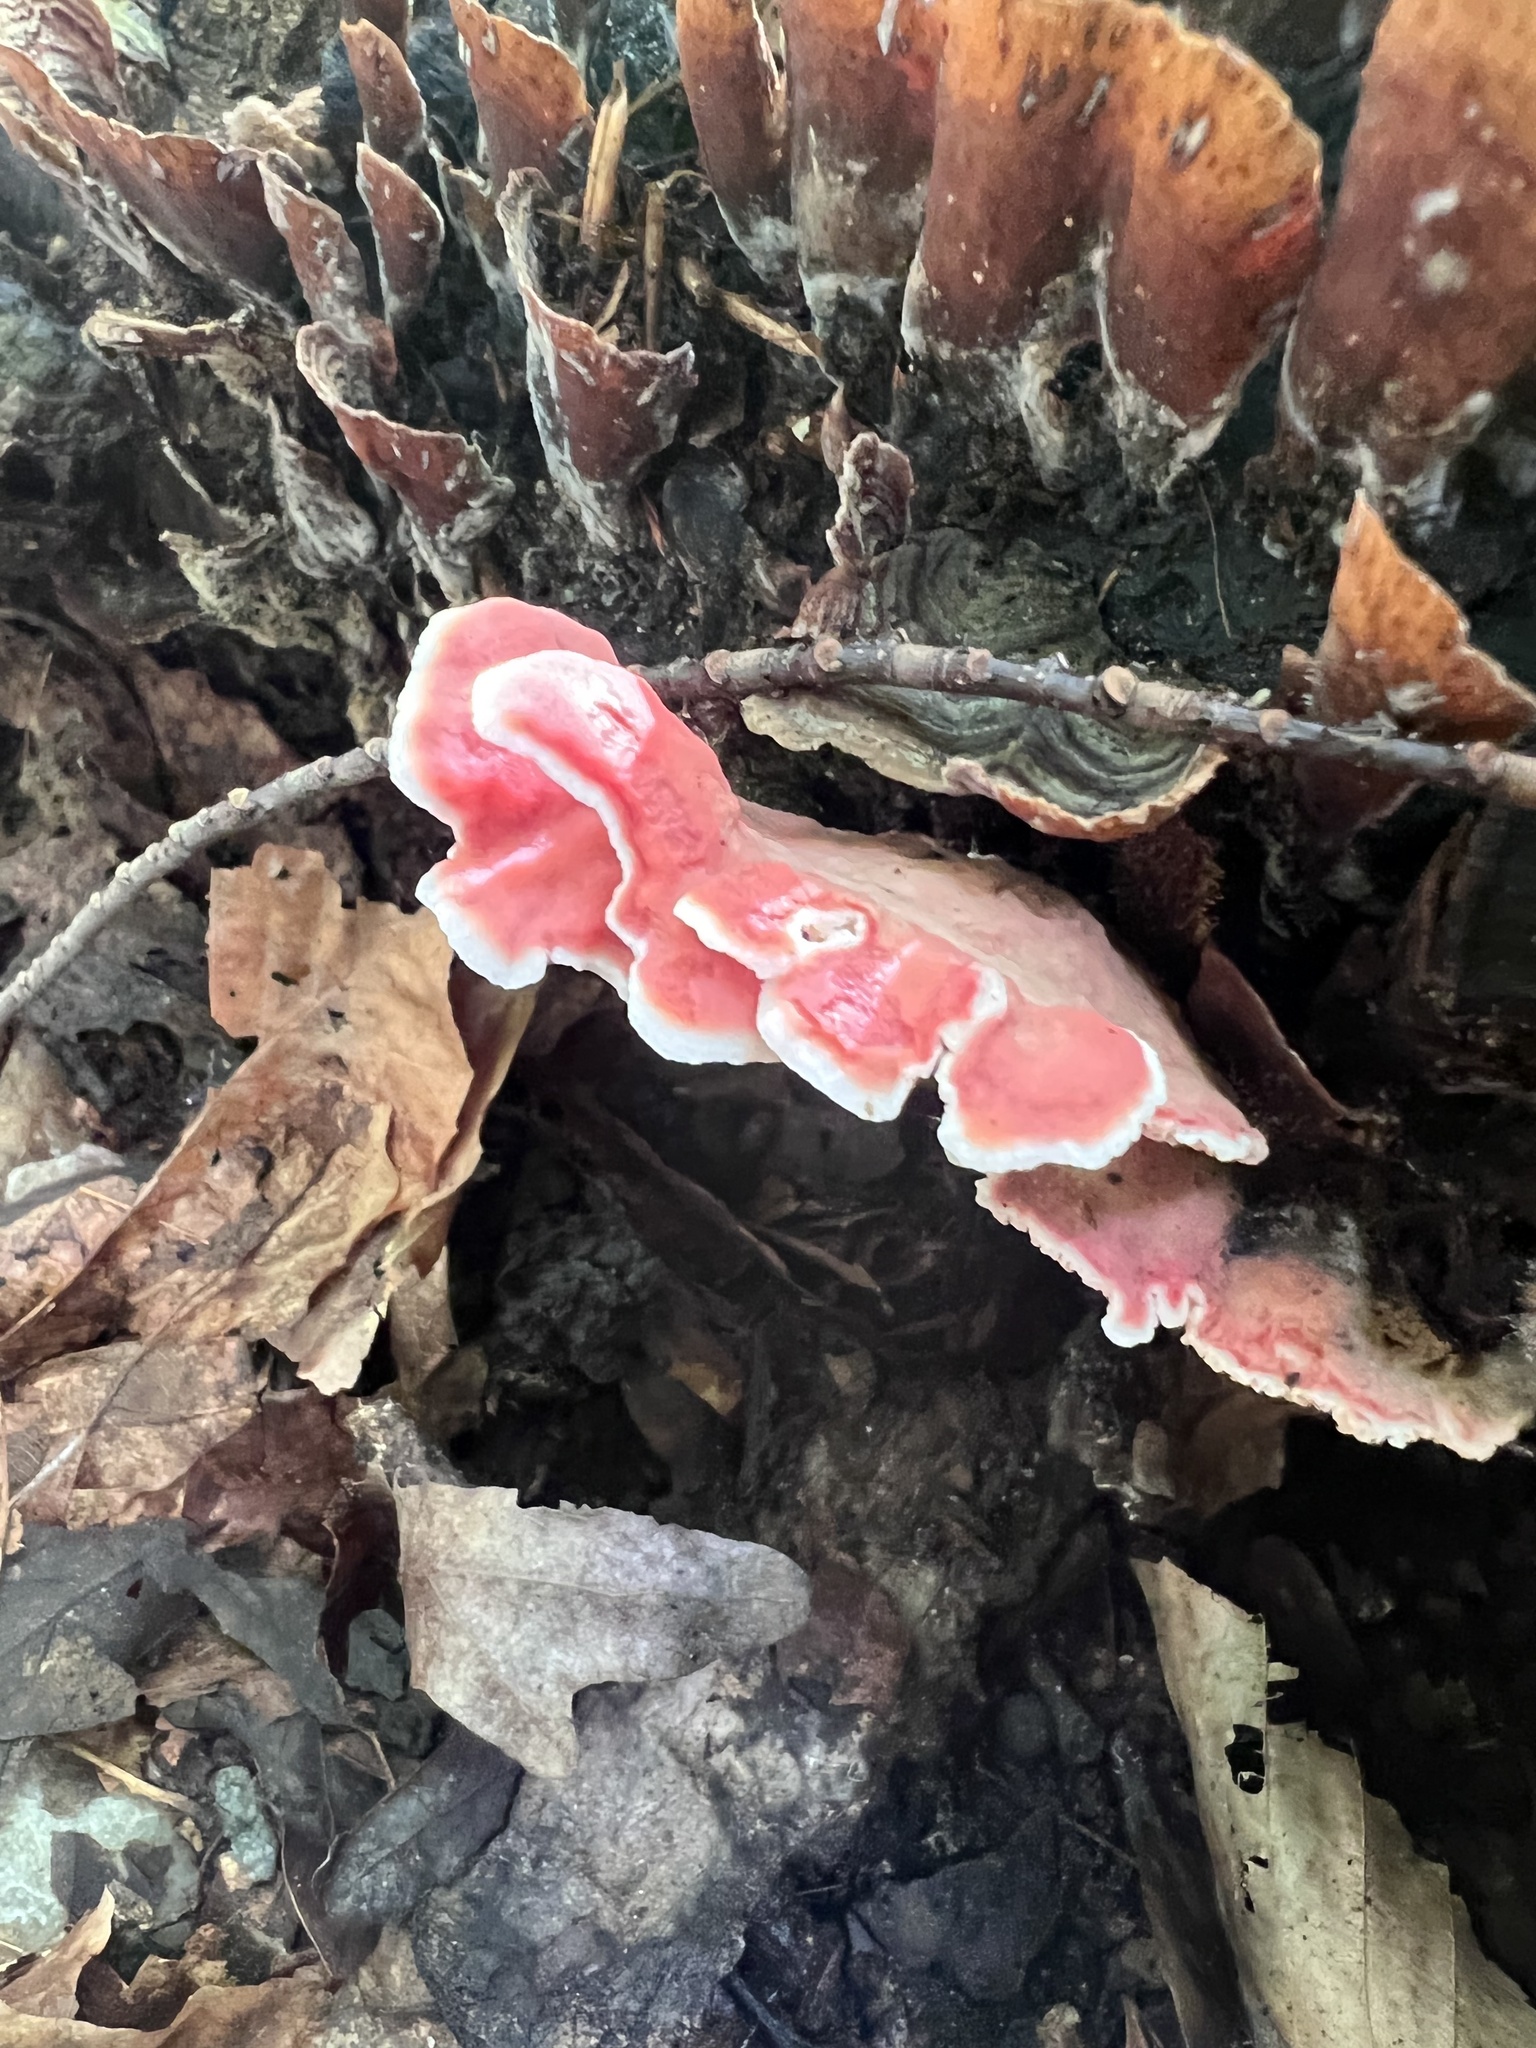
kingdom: Fungi
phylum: Basidiomycota
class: Agaricomycetes
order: Polyporales
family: Irpicaceae
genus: Byssomerulius
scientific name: Byssomerulius incarnatus
